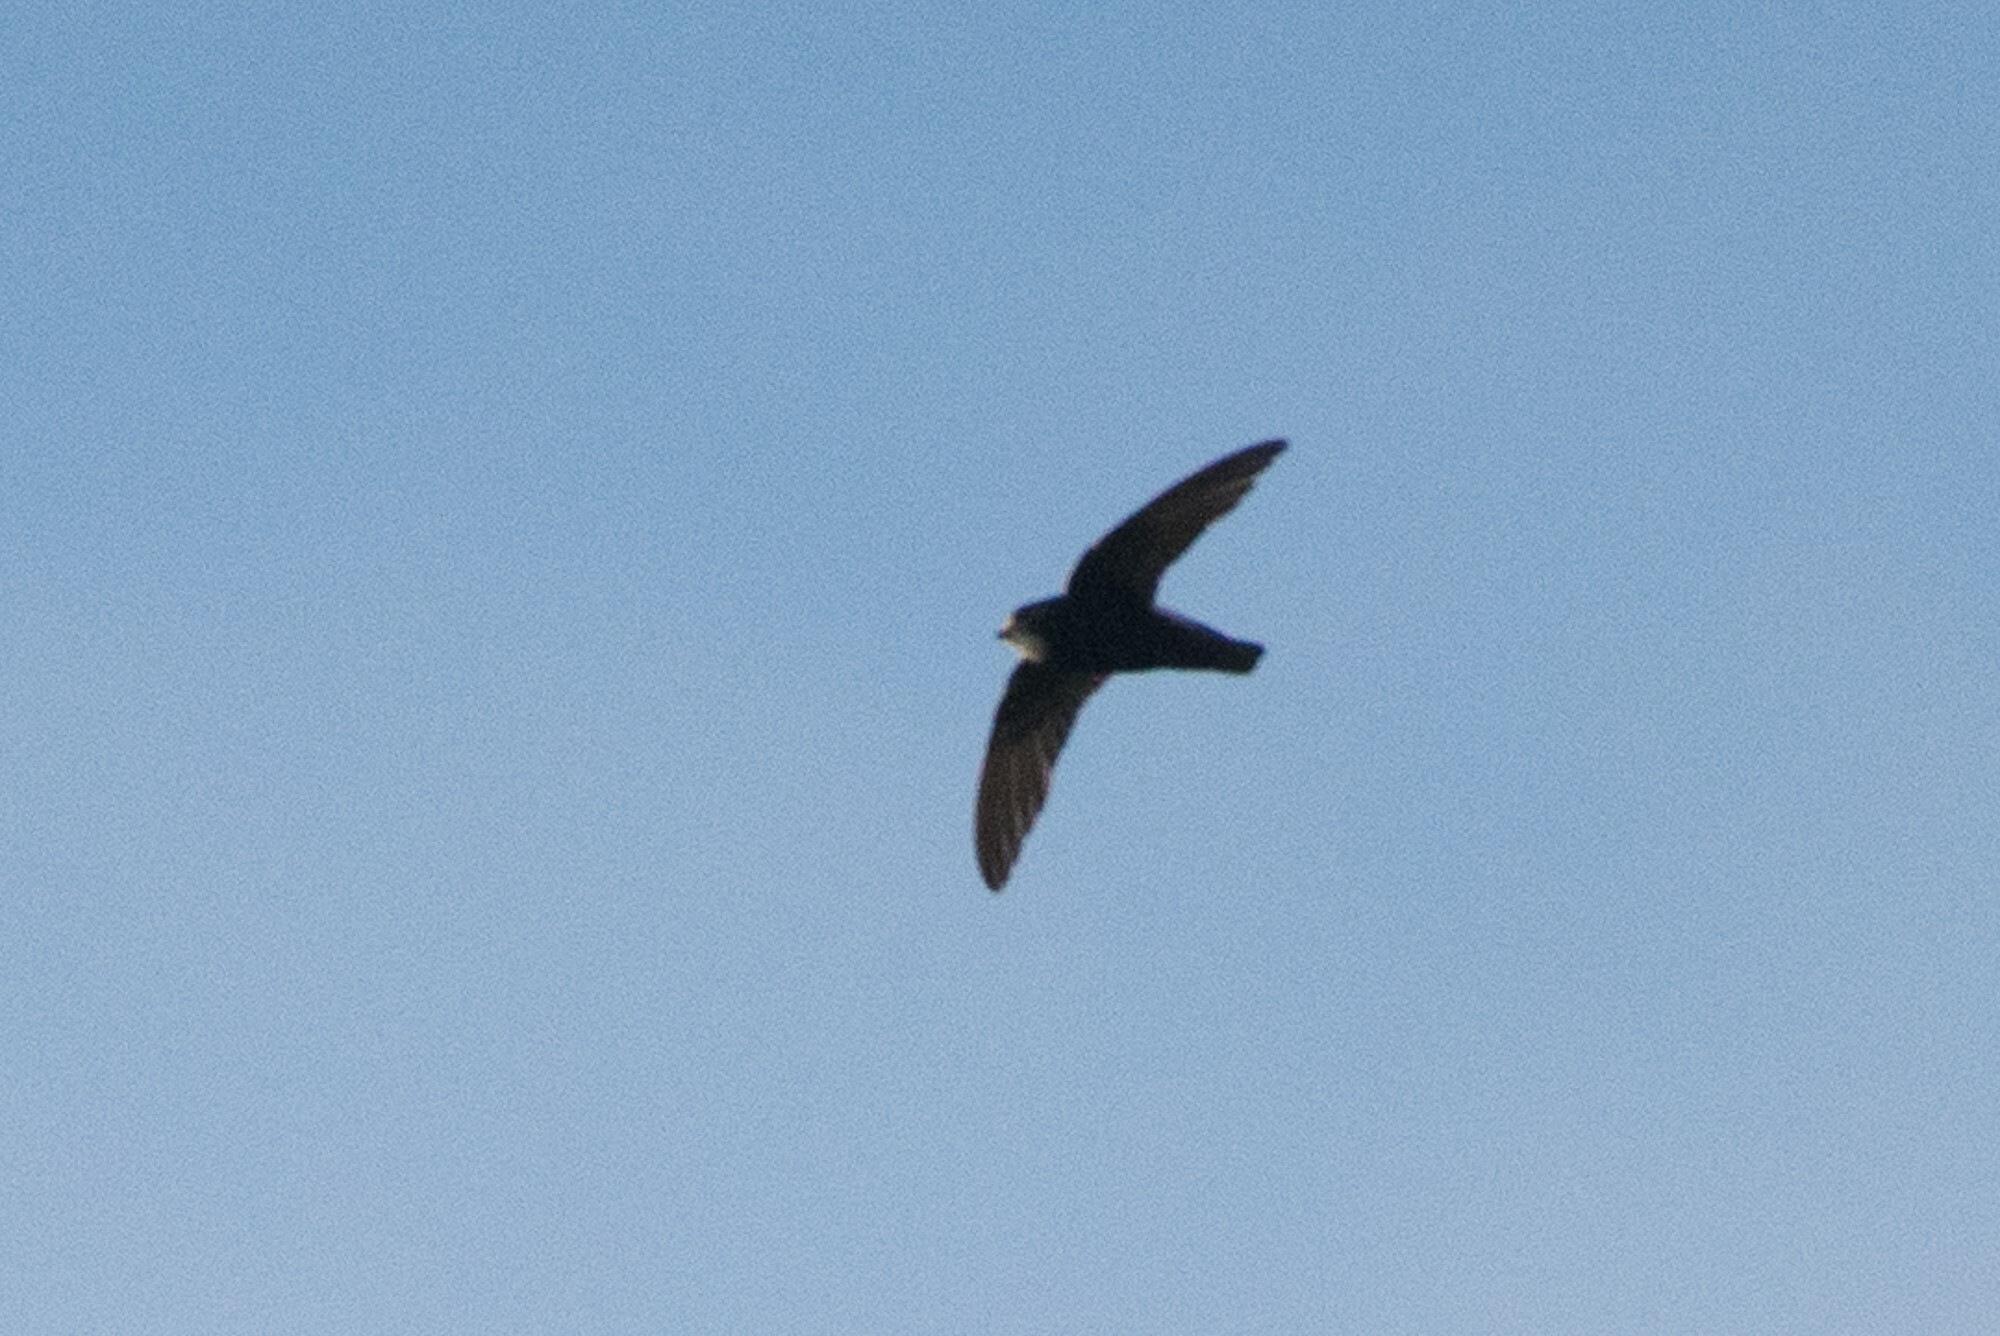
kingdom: Animalia
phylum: Chordata
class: Aves
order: Apodiformes
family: Apodidae
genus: Apus
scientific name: Apus affinis
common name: Little swift
